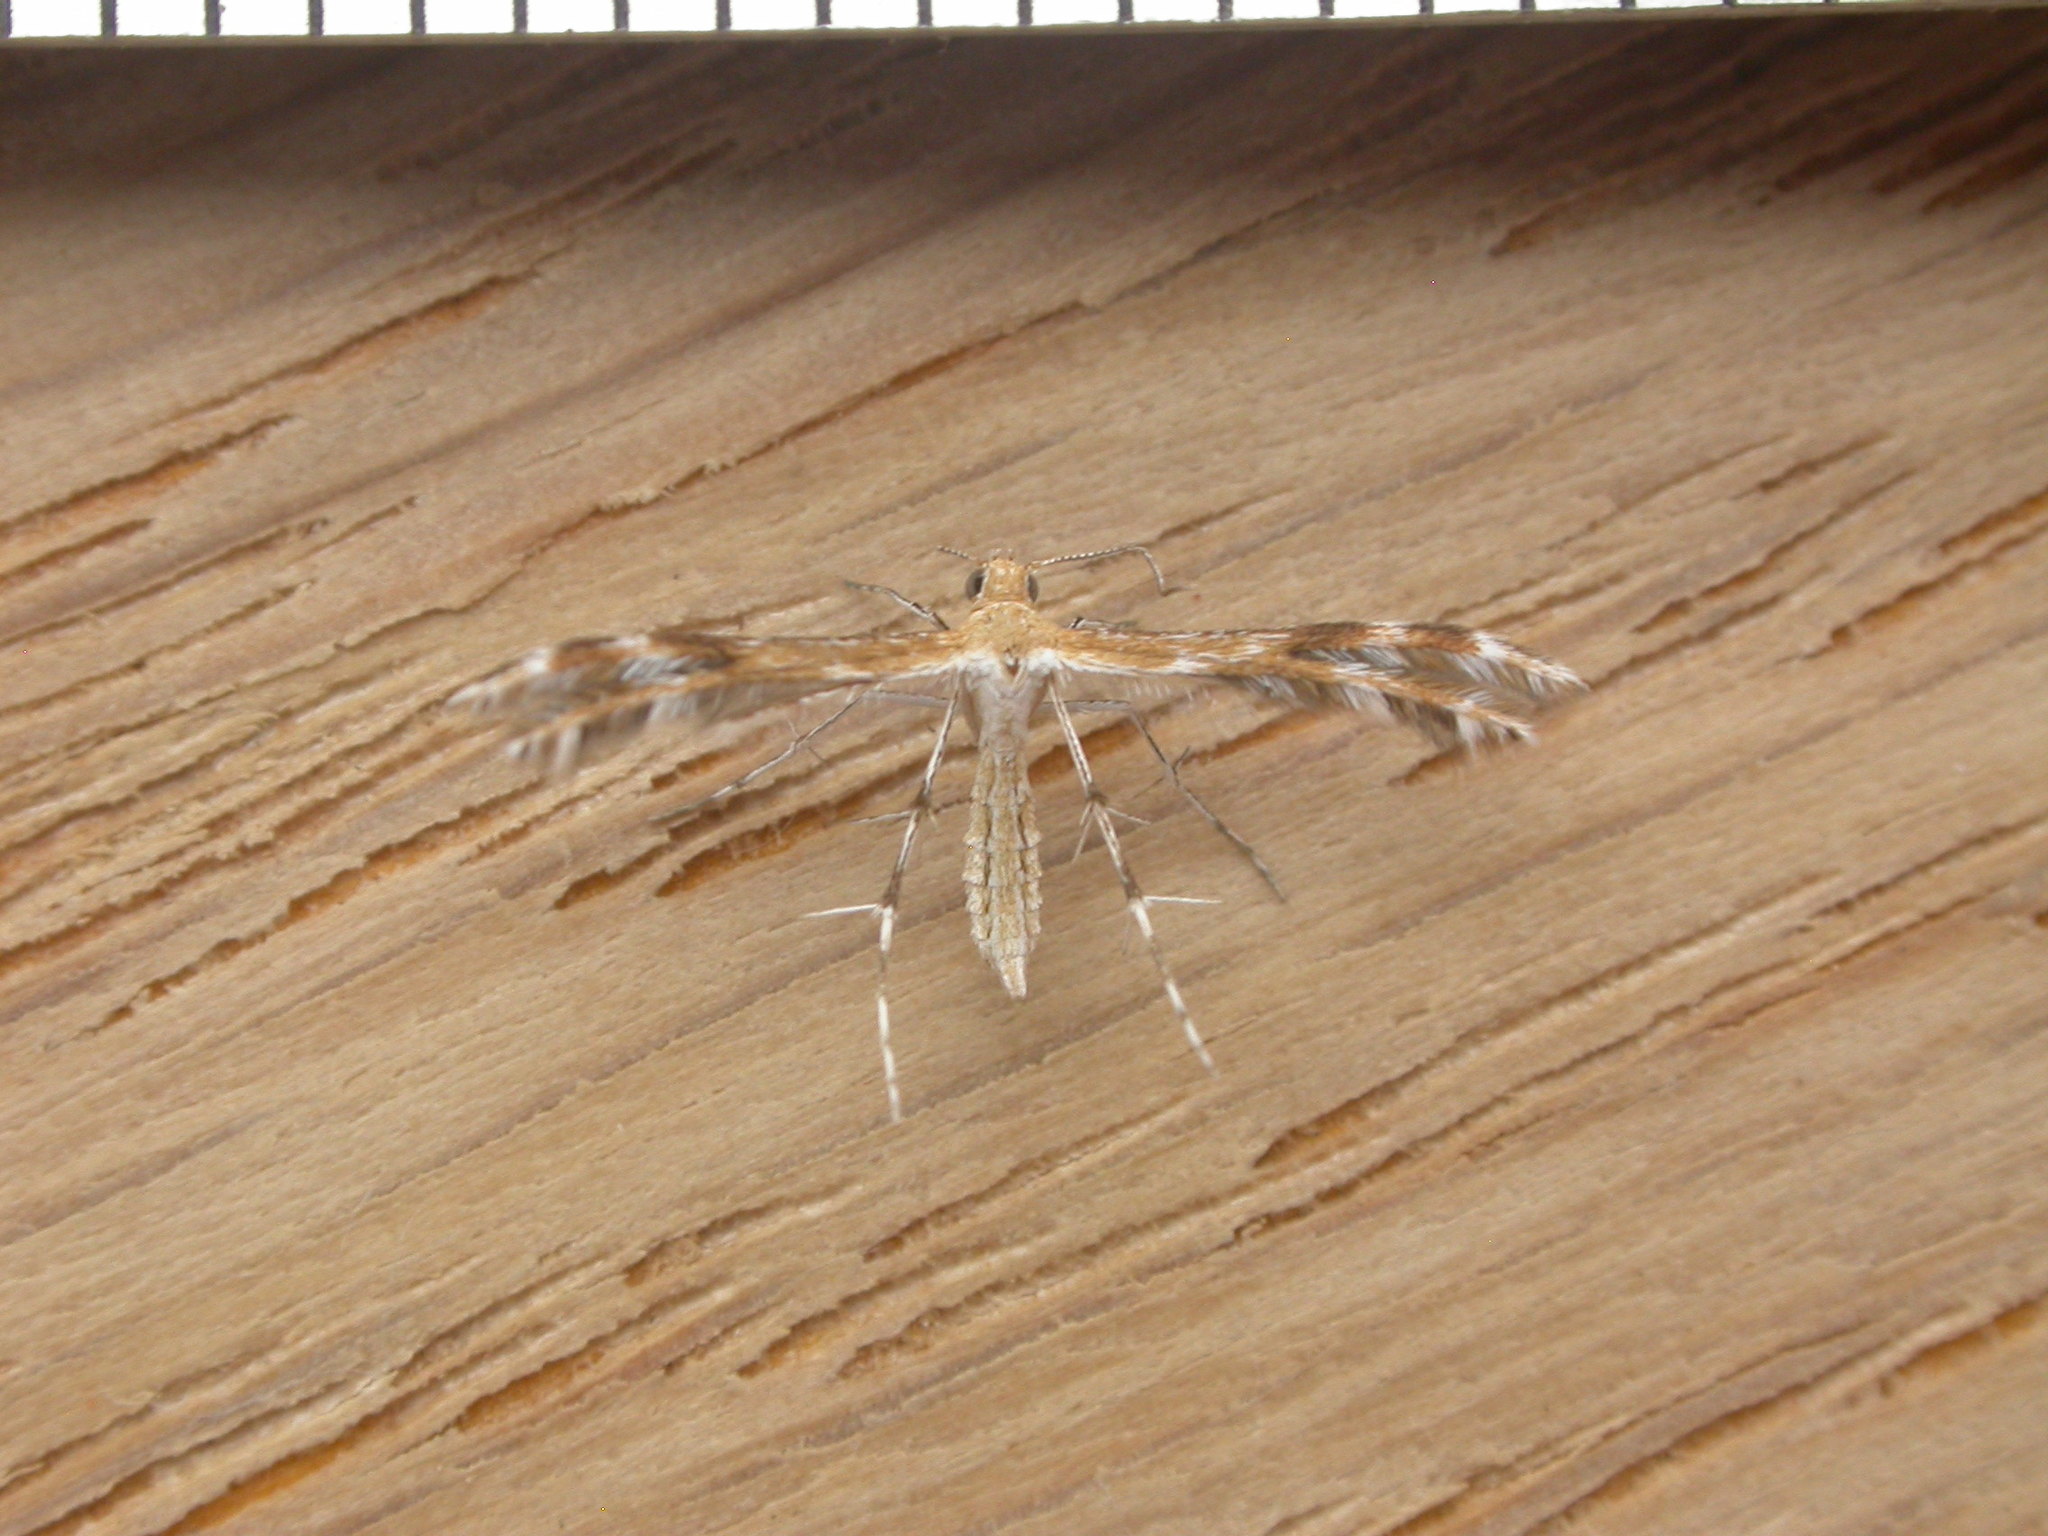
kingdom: Animalia
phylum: Arthropoda
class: Insecta
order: Lepidoptera
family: Pterophoridae
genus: Stangeia
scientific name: Stangeia xerodes
